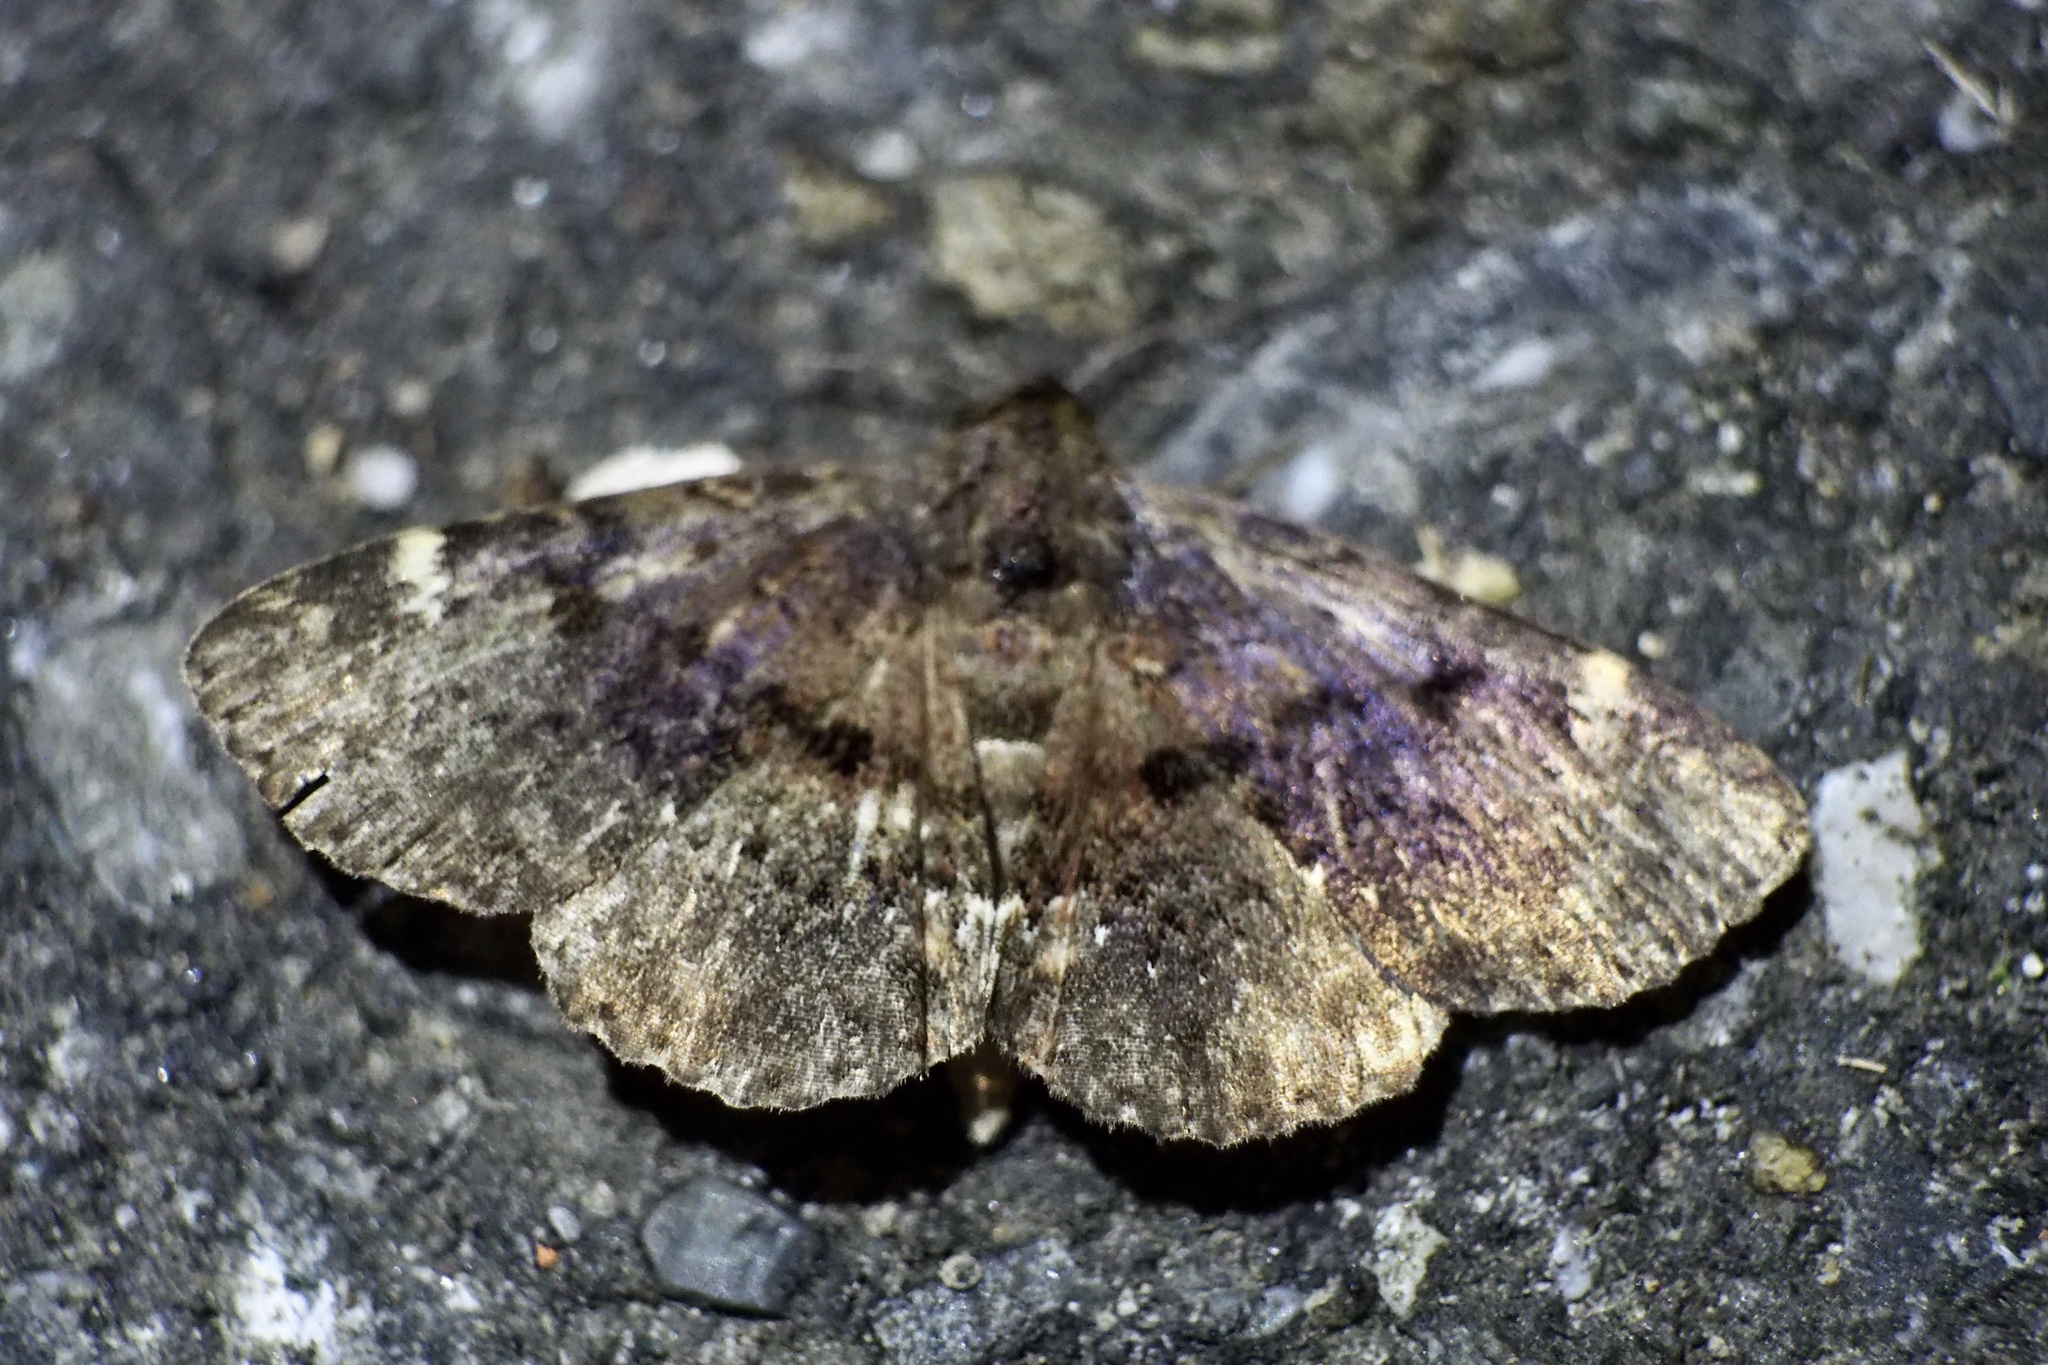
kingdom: Animalia
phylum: Arthropoda
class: Insecta
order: Lepidoptera
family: Erebidae
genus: Diomea
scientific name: Diomea discisigna
